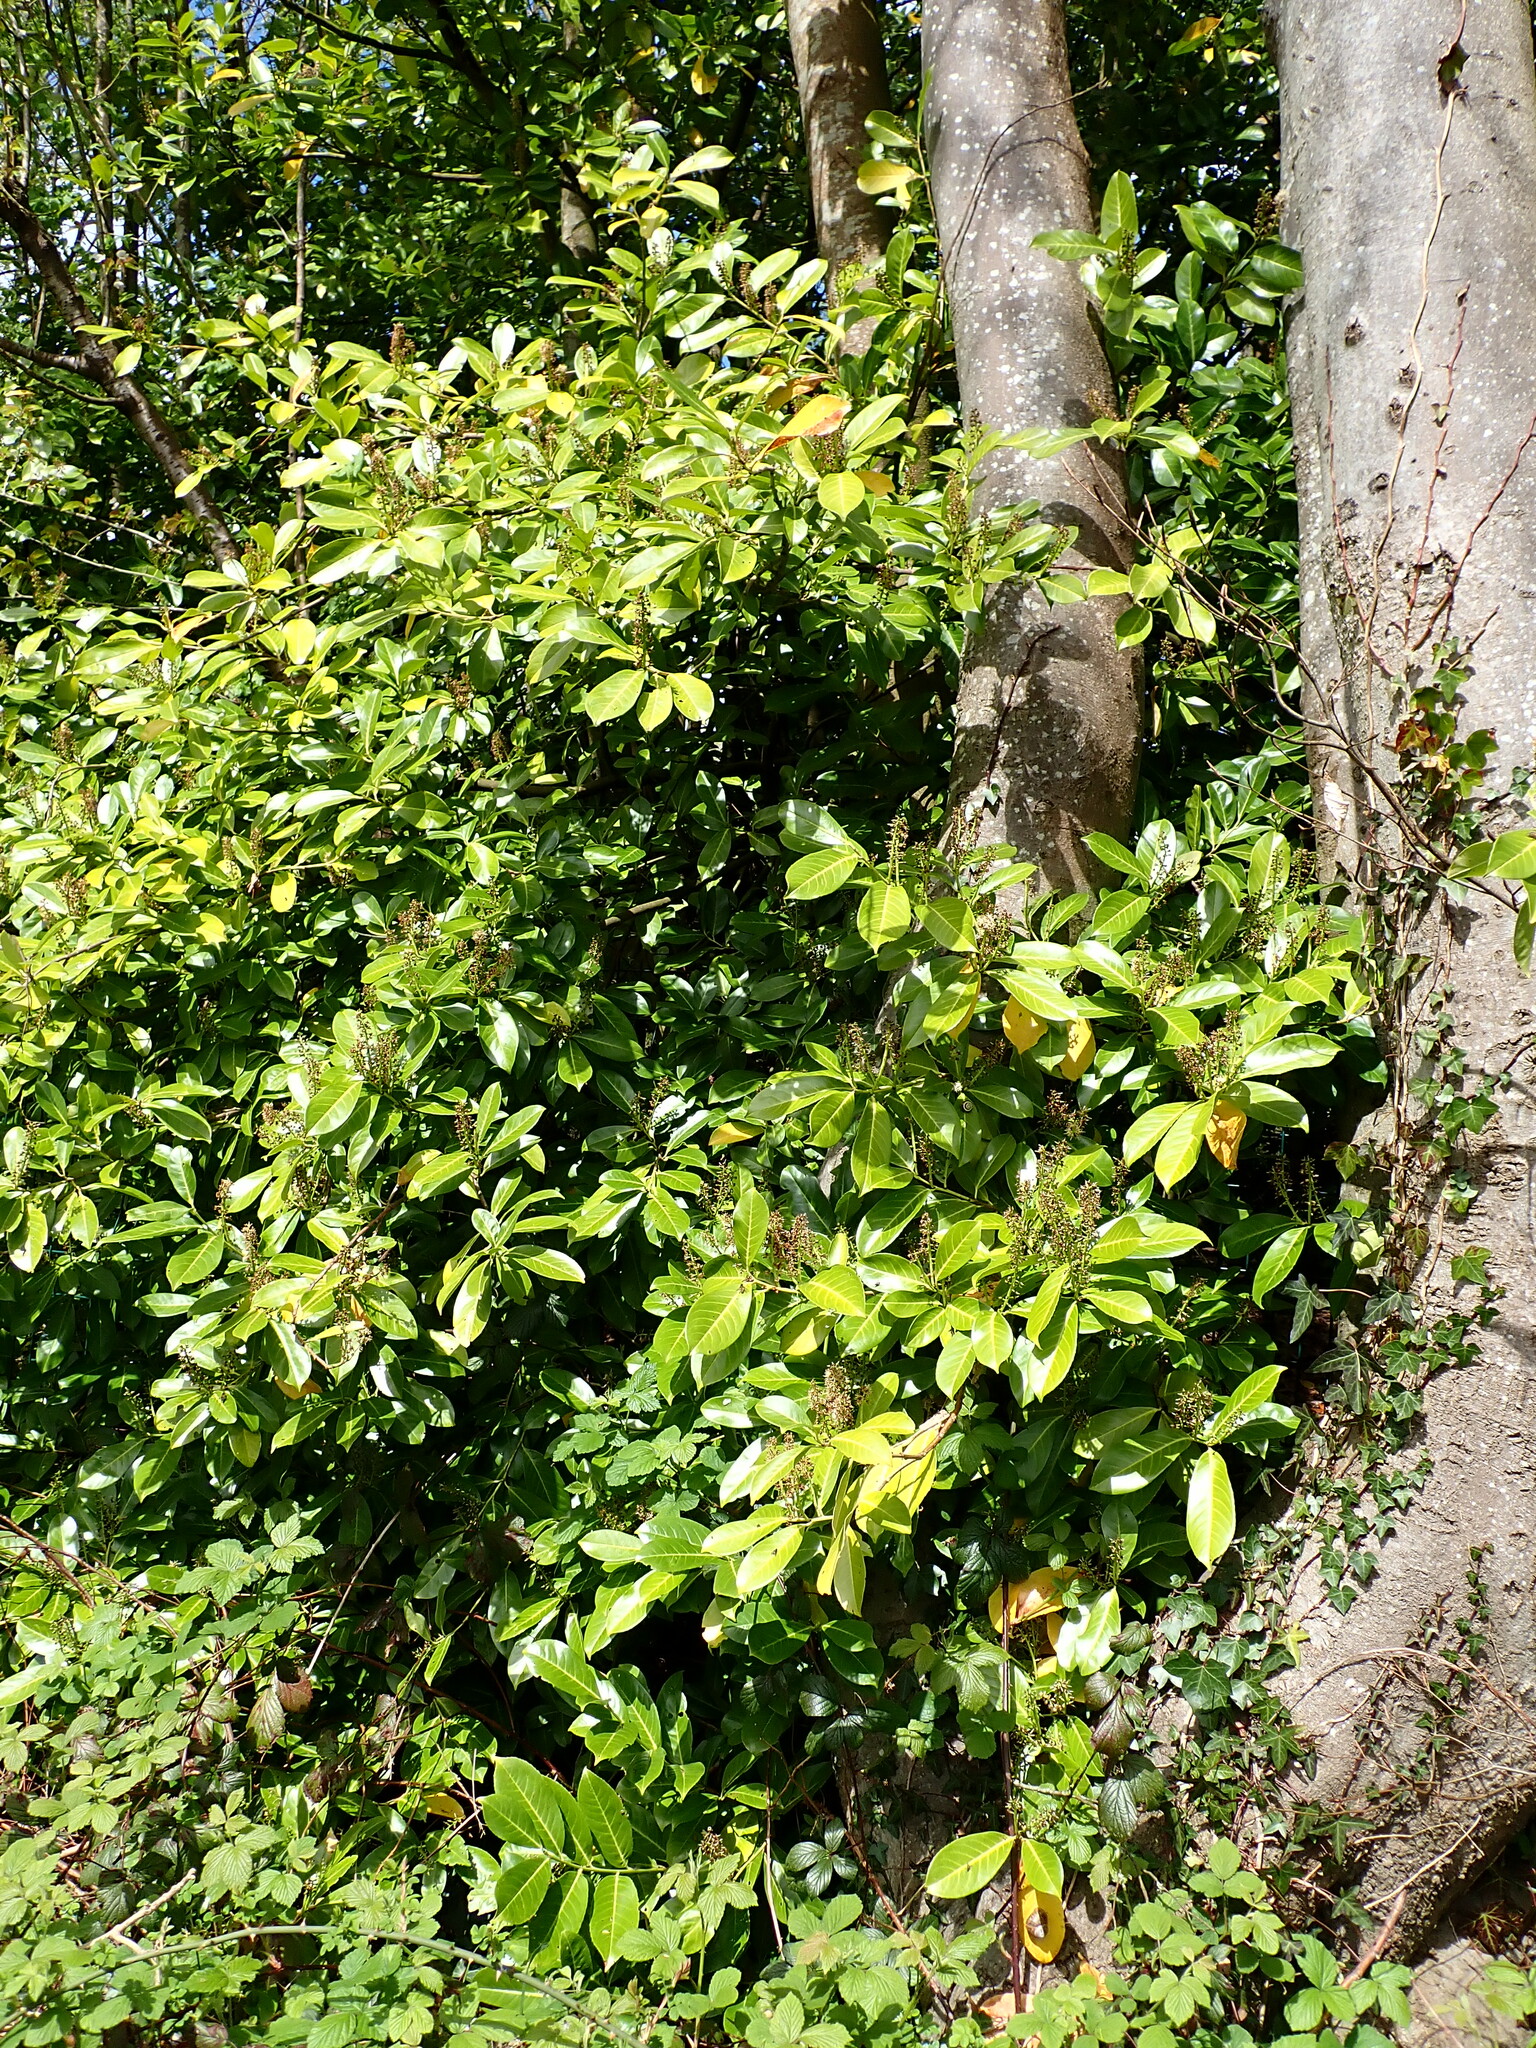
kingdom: Plantae
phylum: Tracheophyta
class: Magnoliopsida
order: Rosales
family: Rosaceae
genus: Prunus
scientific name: Prunus laurocerasus
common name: Cherry laurel
